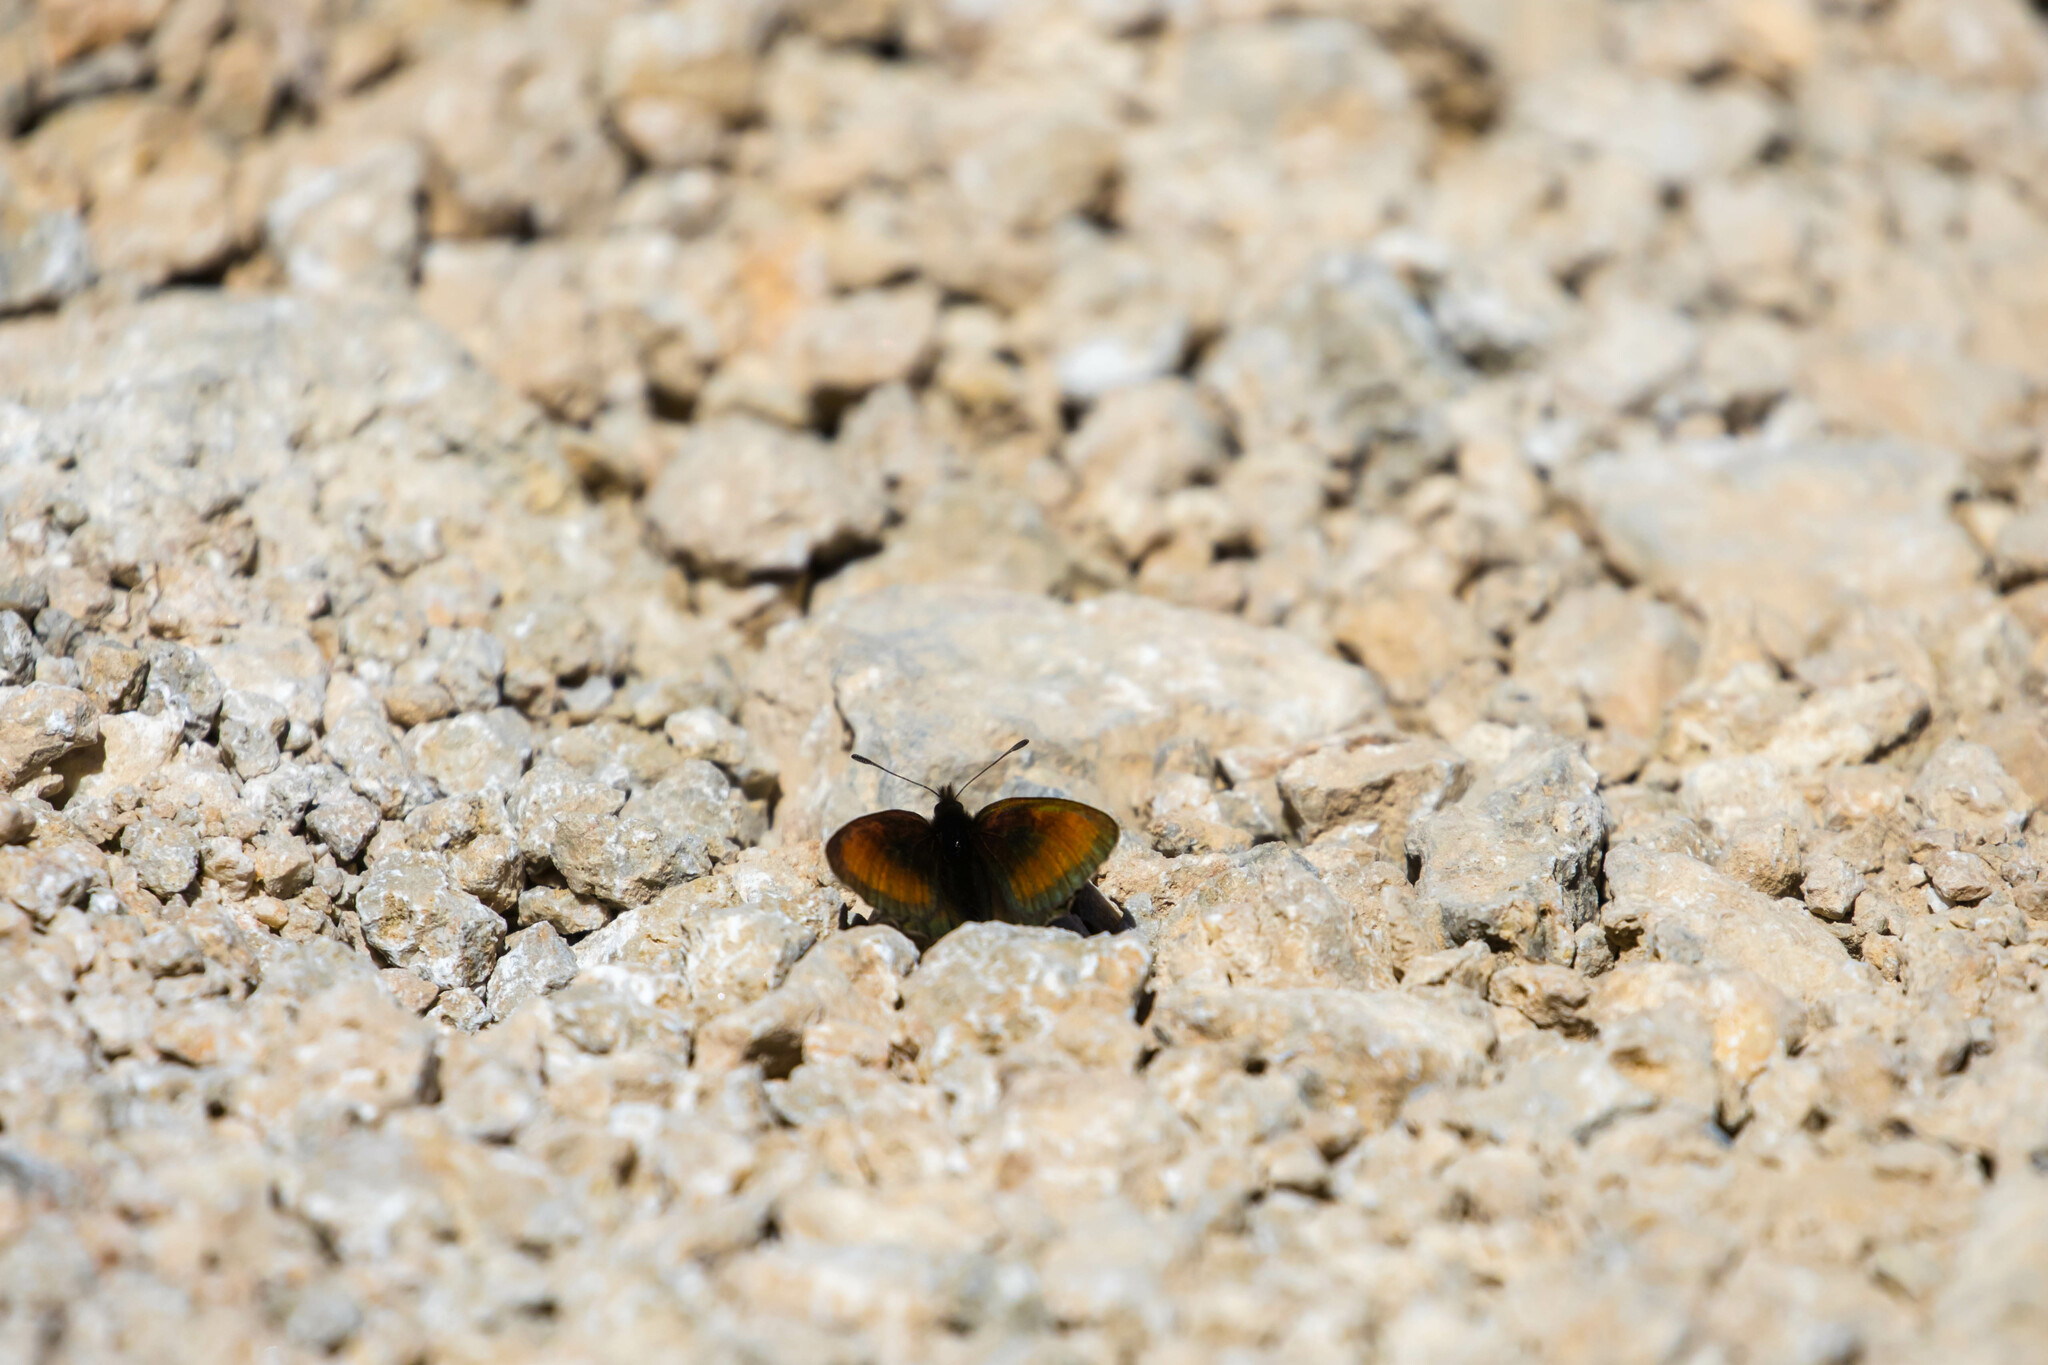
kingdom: Animalia
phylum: Arthropoda
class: Insecta
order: Lepidoptera
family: Nymphalidae
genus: Erebia
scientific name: Erebia gorge
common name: Silky ringlet
